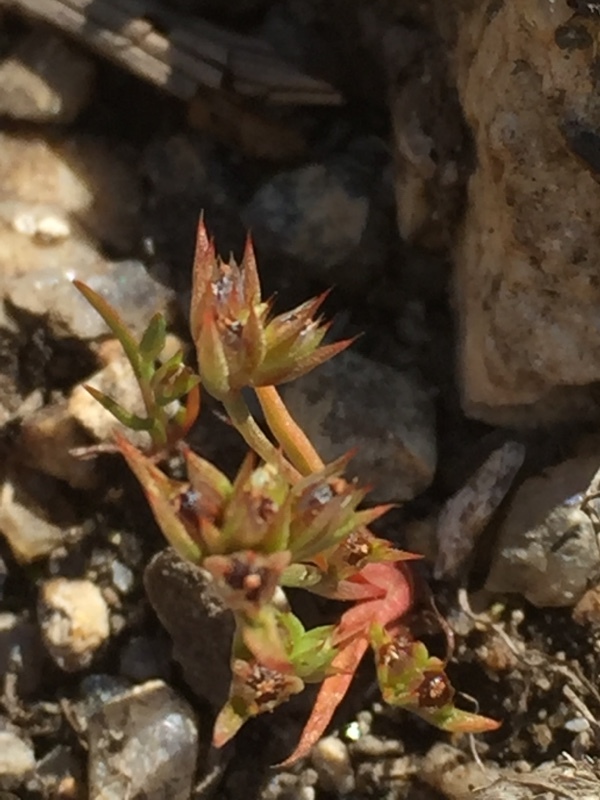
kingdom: Plantae
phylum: Tracheophyta
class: Liliopsida
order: Poales
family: Juncaceae
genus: Juncus
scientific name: Juncus capitatus
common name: Dwarf rush
